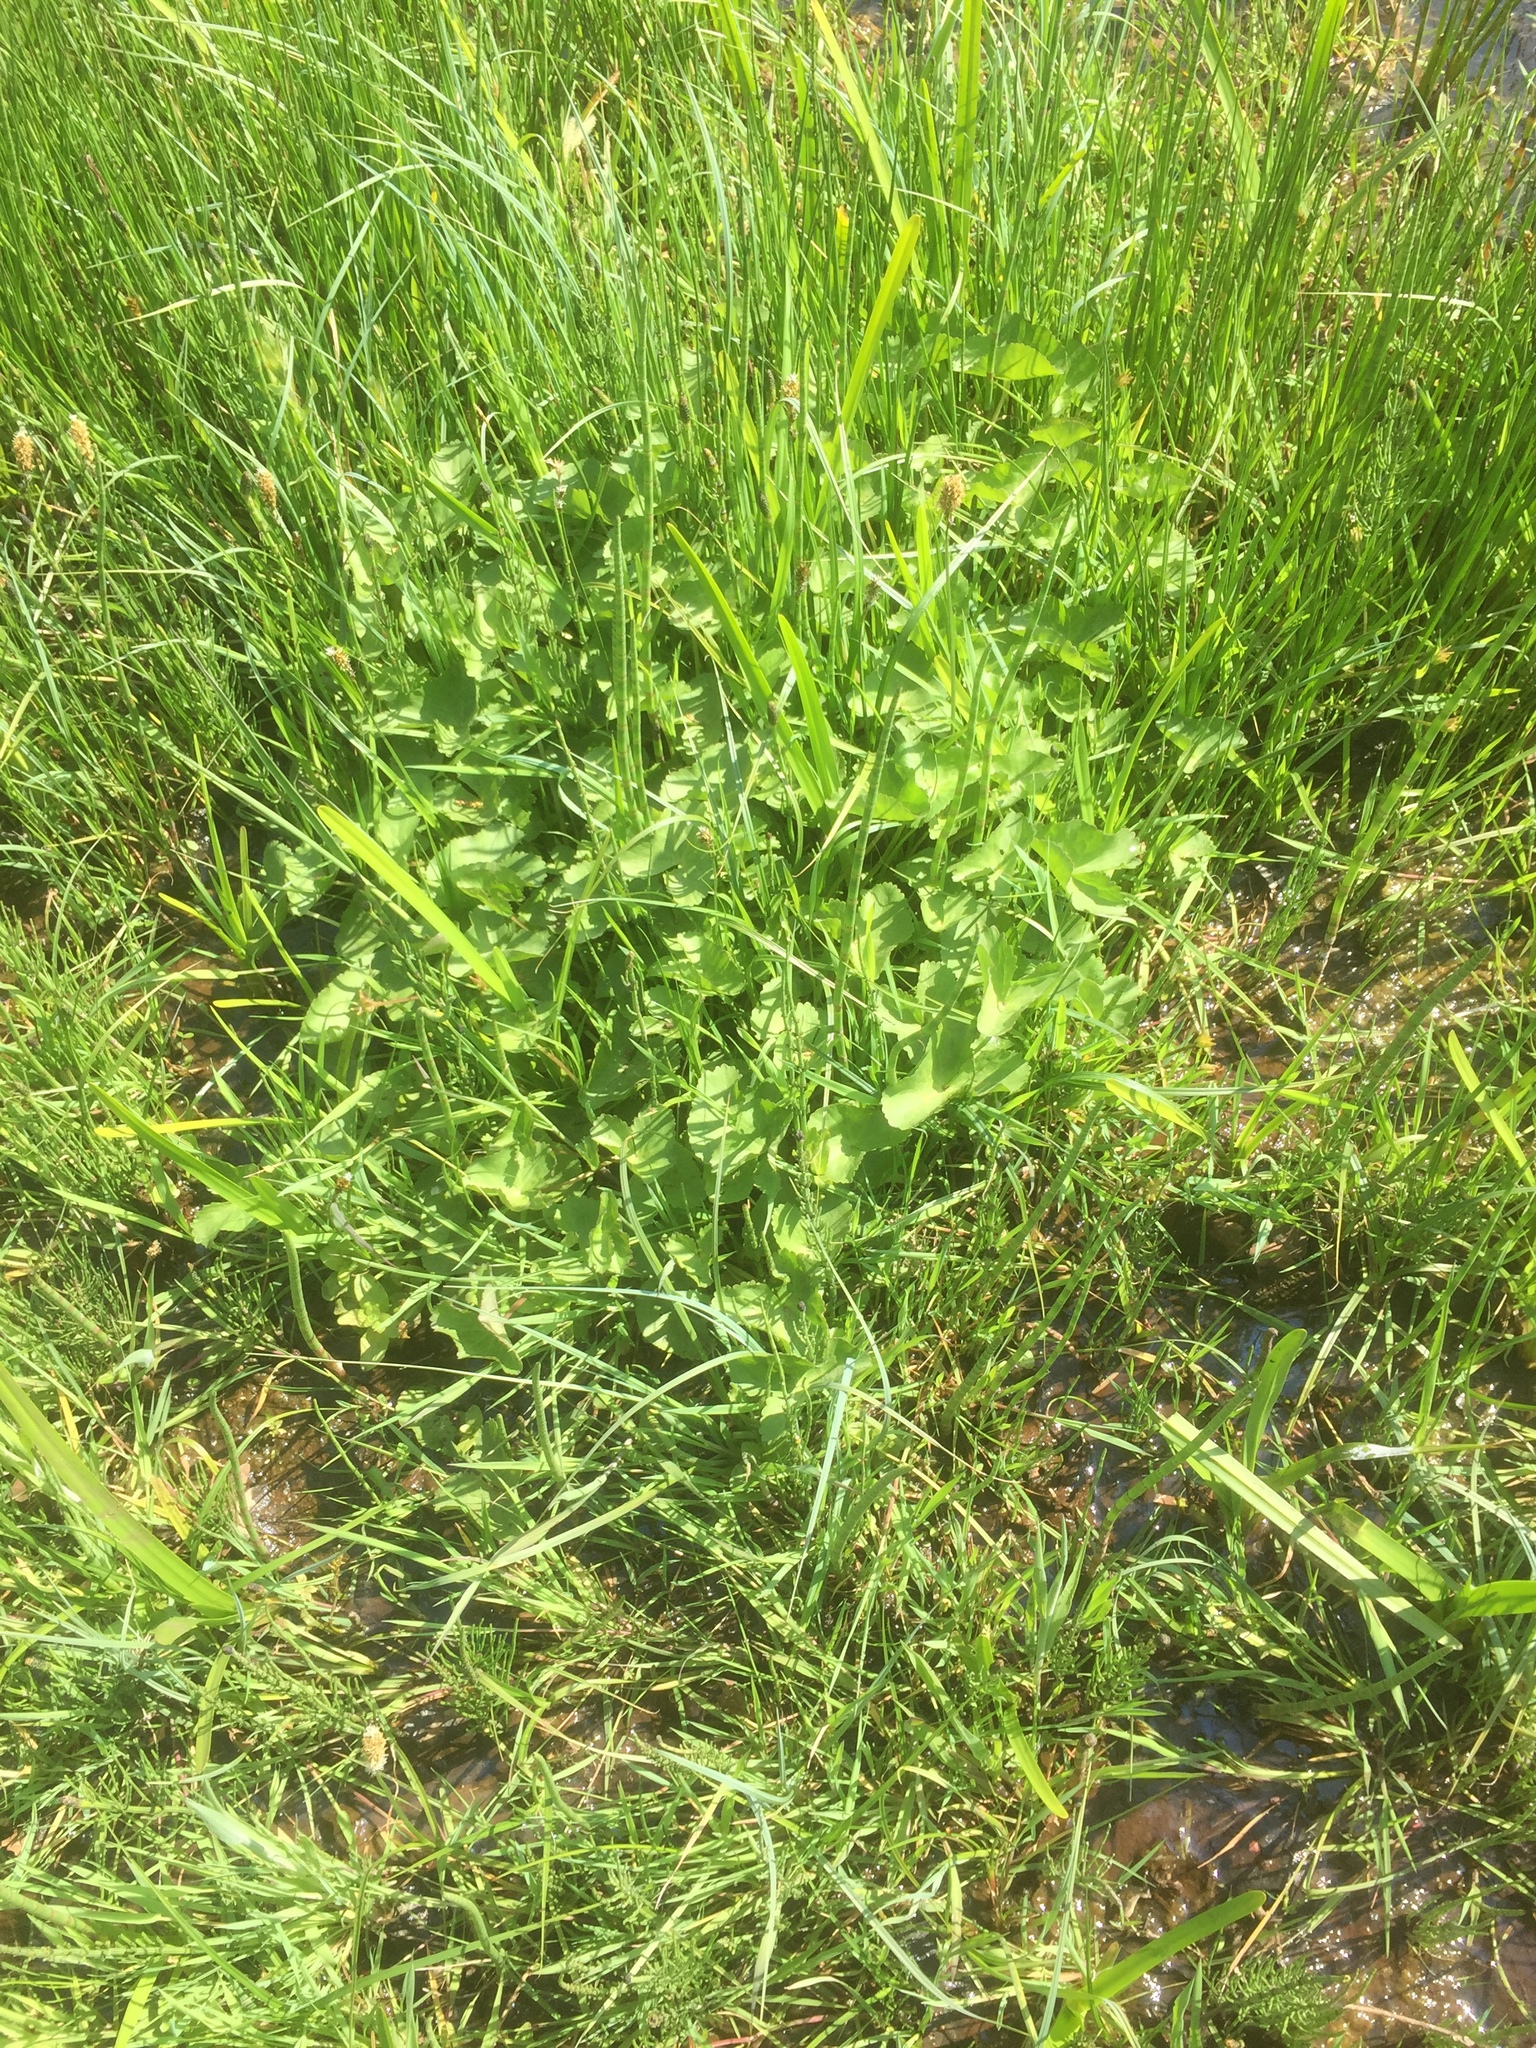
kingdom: Plantae
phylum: Tracheophyta
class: Magnoliopsida
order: Ranunculales
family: Ranunculaceae
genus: Caltha
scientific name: Caltha palustris
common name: Marsh marigold
